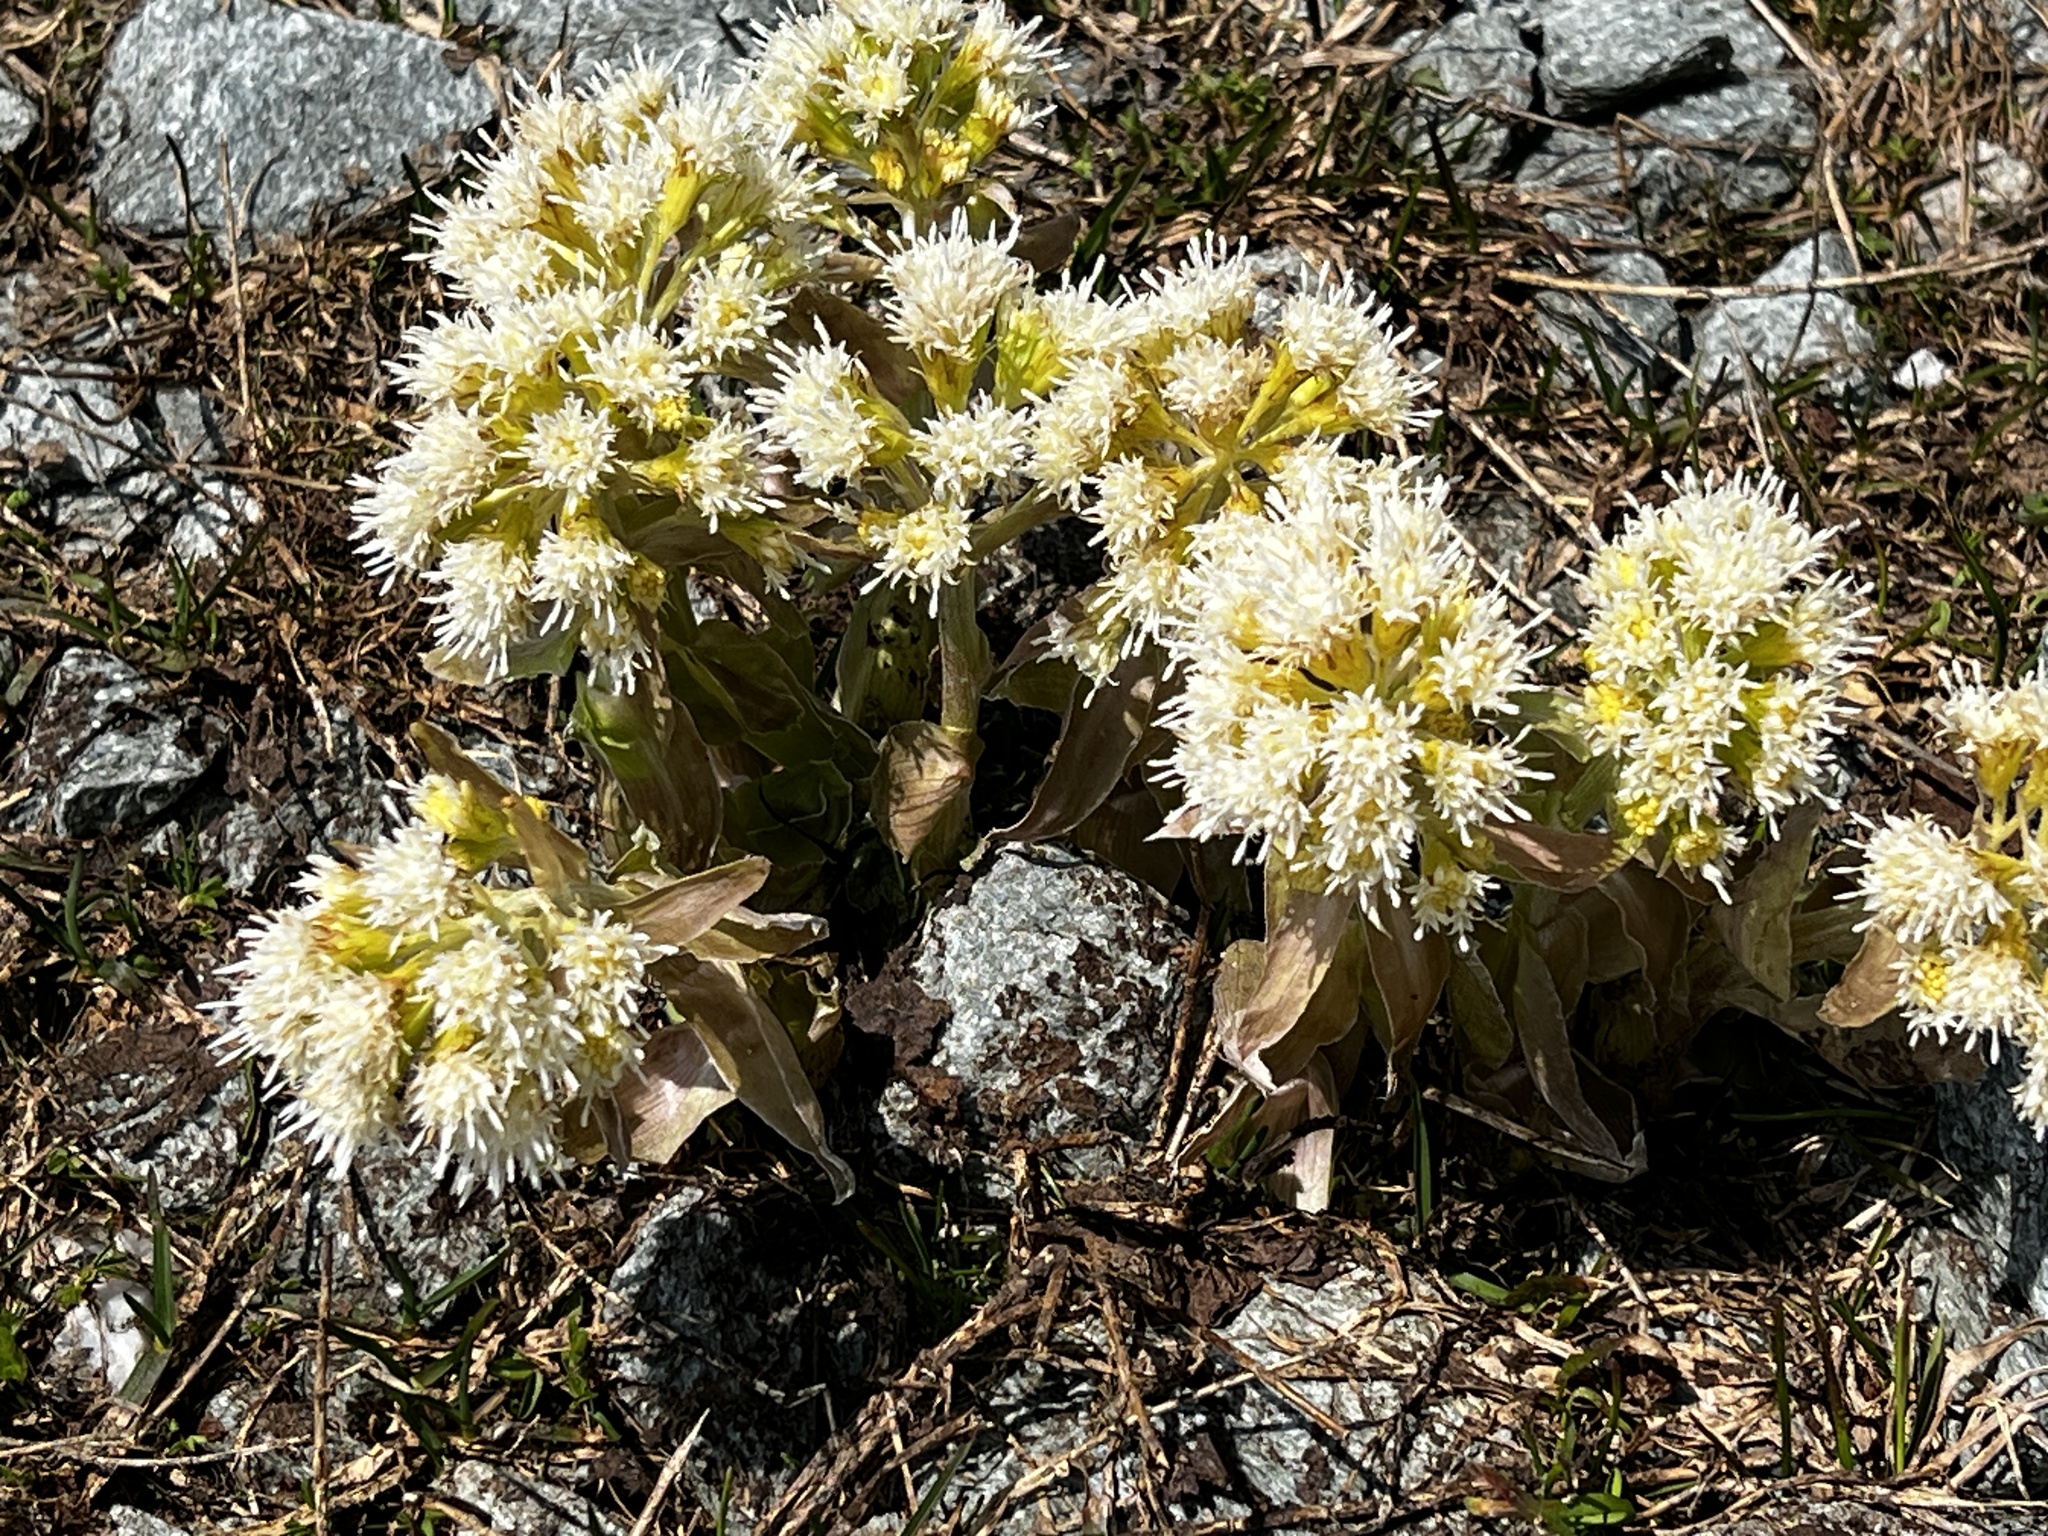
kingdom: Plantae
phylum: Tracheophyta
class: Magnoliopsida
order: Asterales
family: Asteraceae
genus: Petasites
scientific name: Petasites albus
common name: White butterbur
